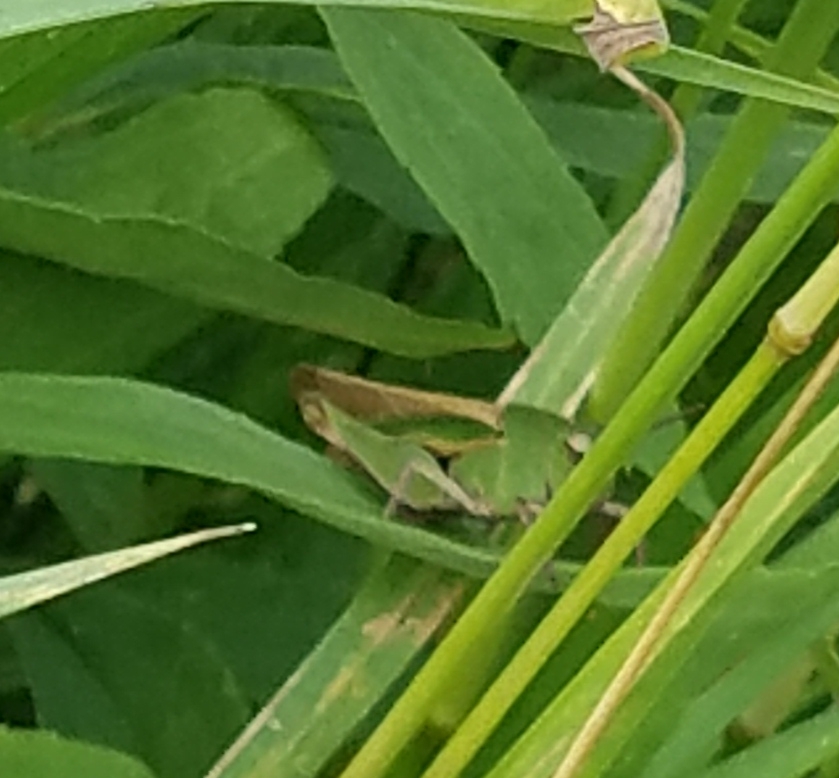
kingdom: Animalia
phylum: Arthropoda
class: Insecta
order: Orthoptera
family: Acrididae
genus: Chortophaga
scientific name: Chortophaga viridifasciata
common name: Green-striped grasshopper
